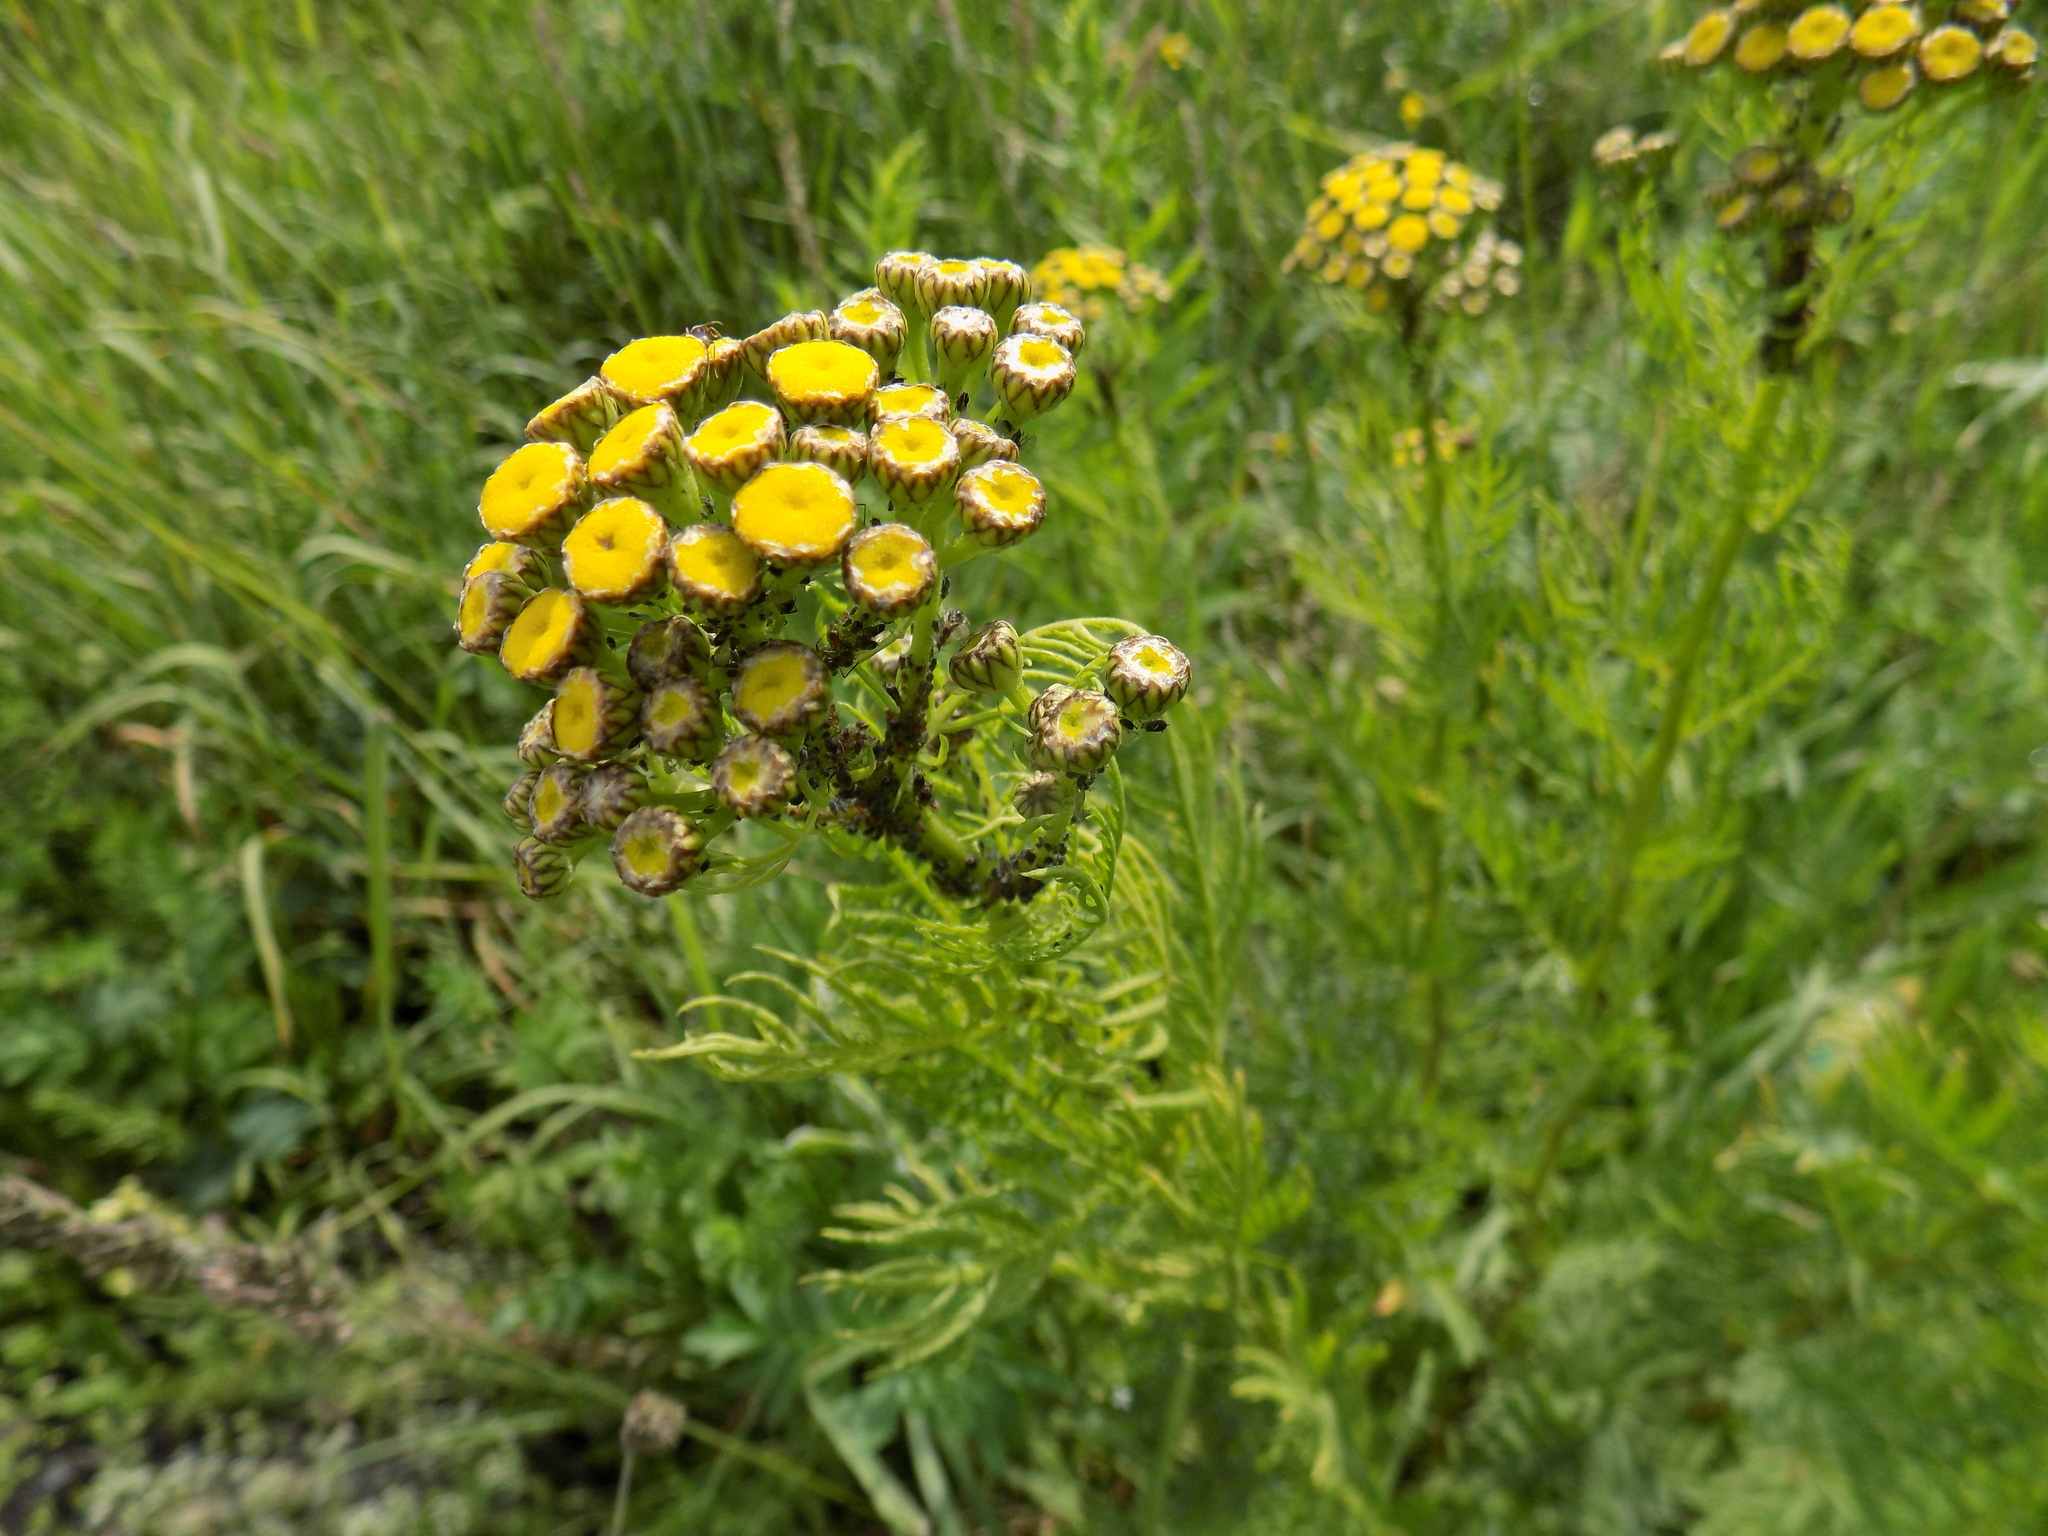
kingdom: Plantae
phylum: Tracheophyta
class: Magnoliopsida
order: Asterales
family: Asteraceae
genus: Tanacetum
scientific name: Tanacetum vulgare
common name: Common tansy
